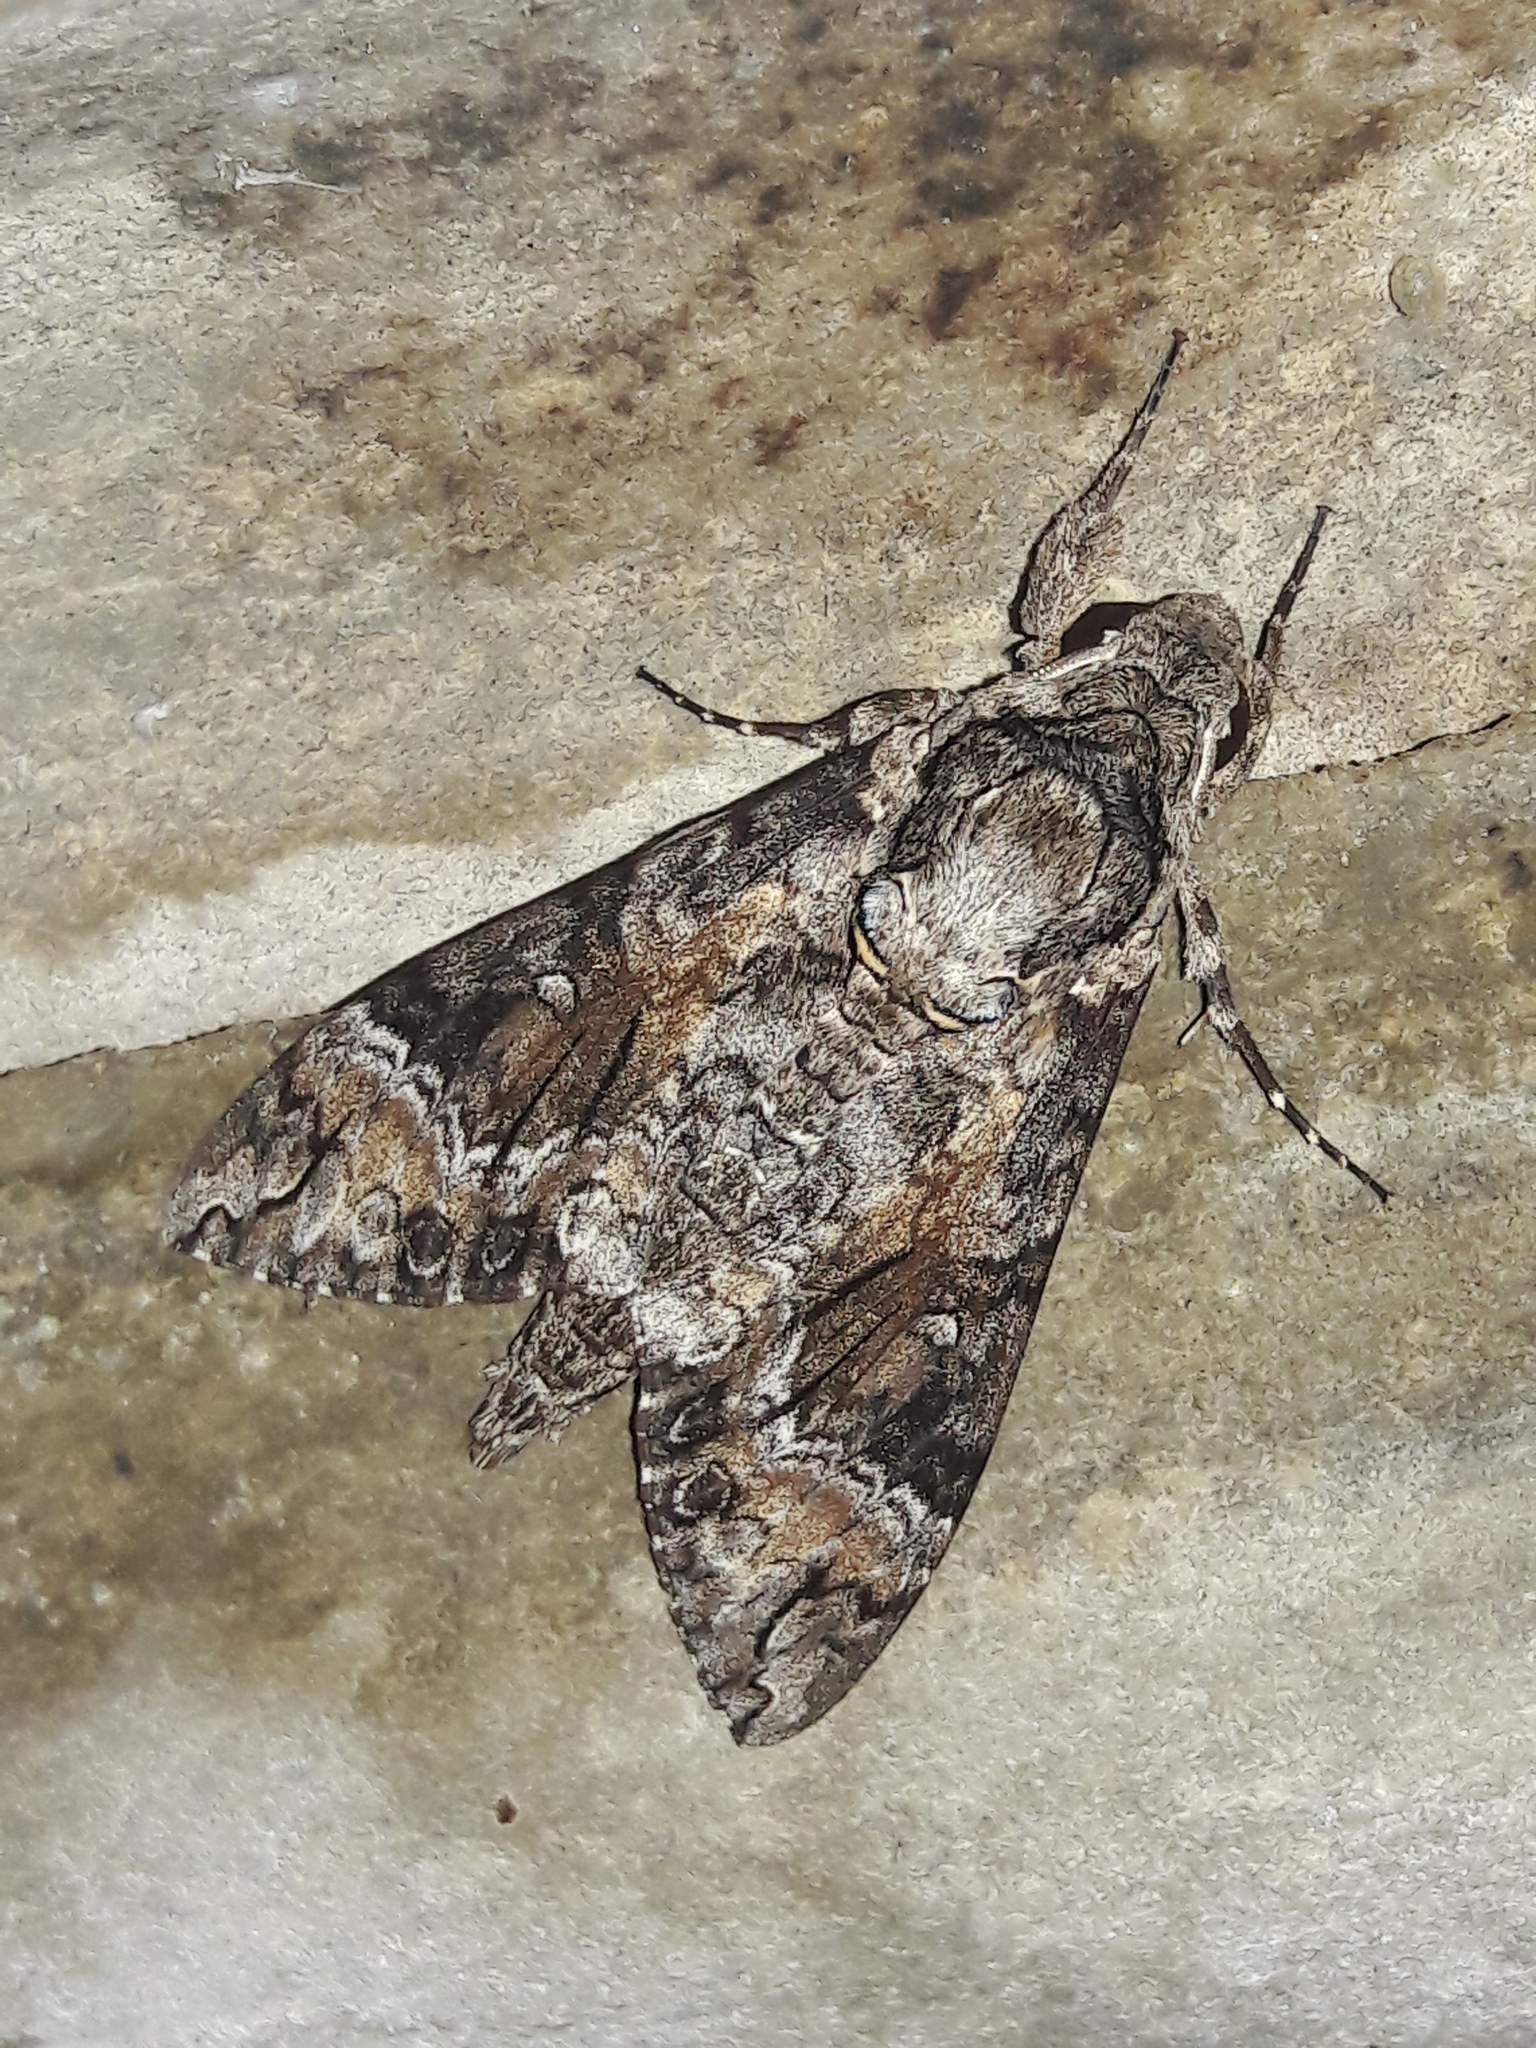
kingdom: Animalia
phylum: Arthropoda
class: Insecta
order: Lepidoptera
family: Sphingidae
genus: Agrius
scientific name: Agrius cingulata
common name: Pink-spotted hawkmoth
